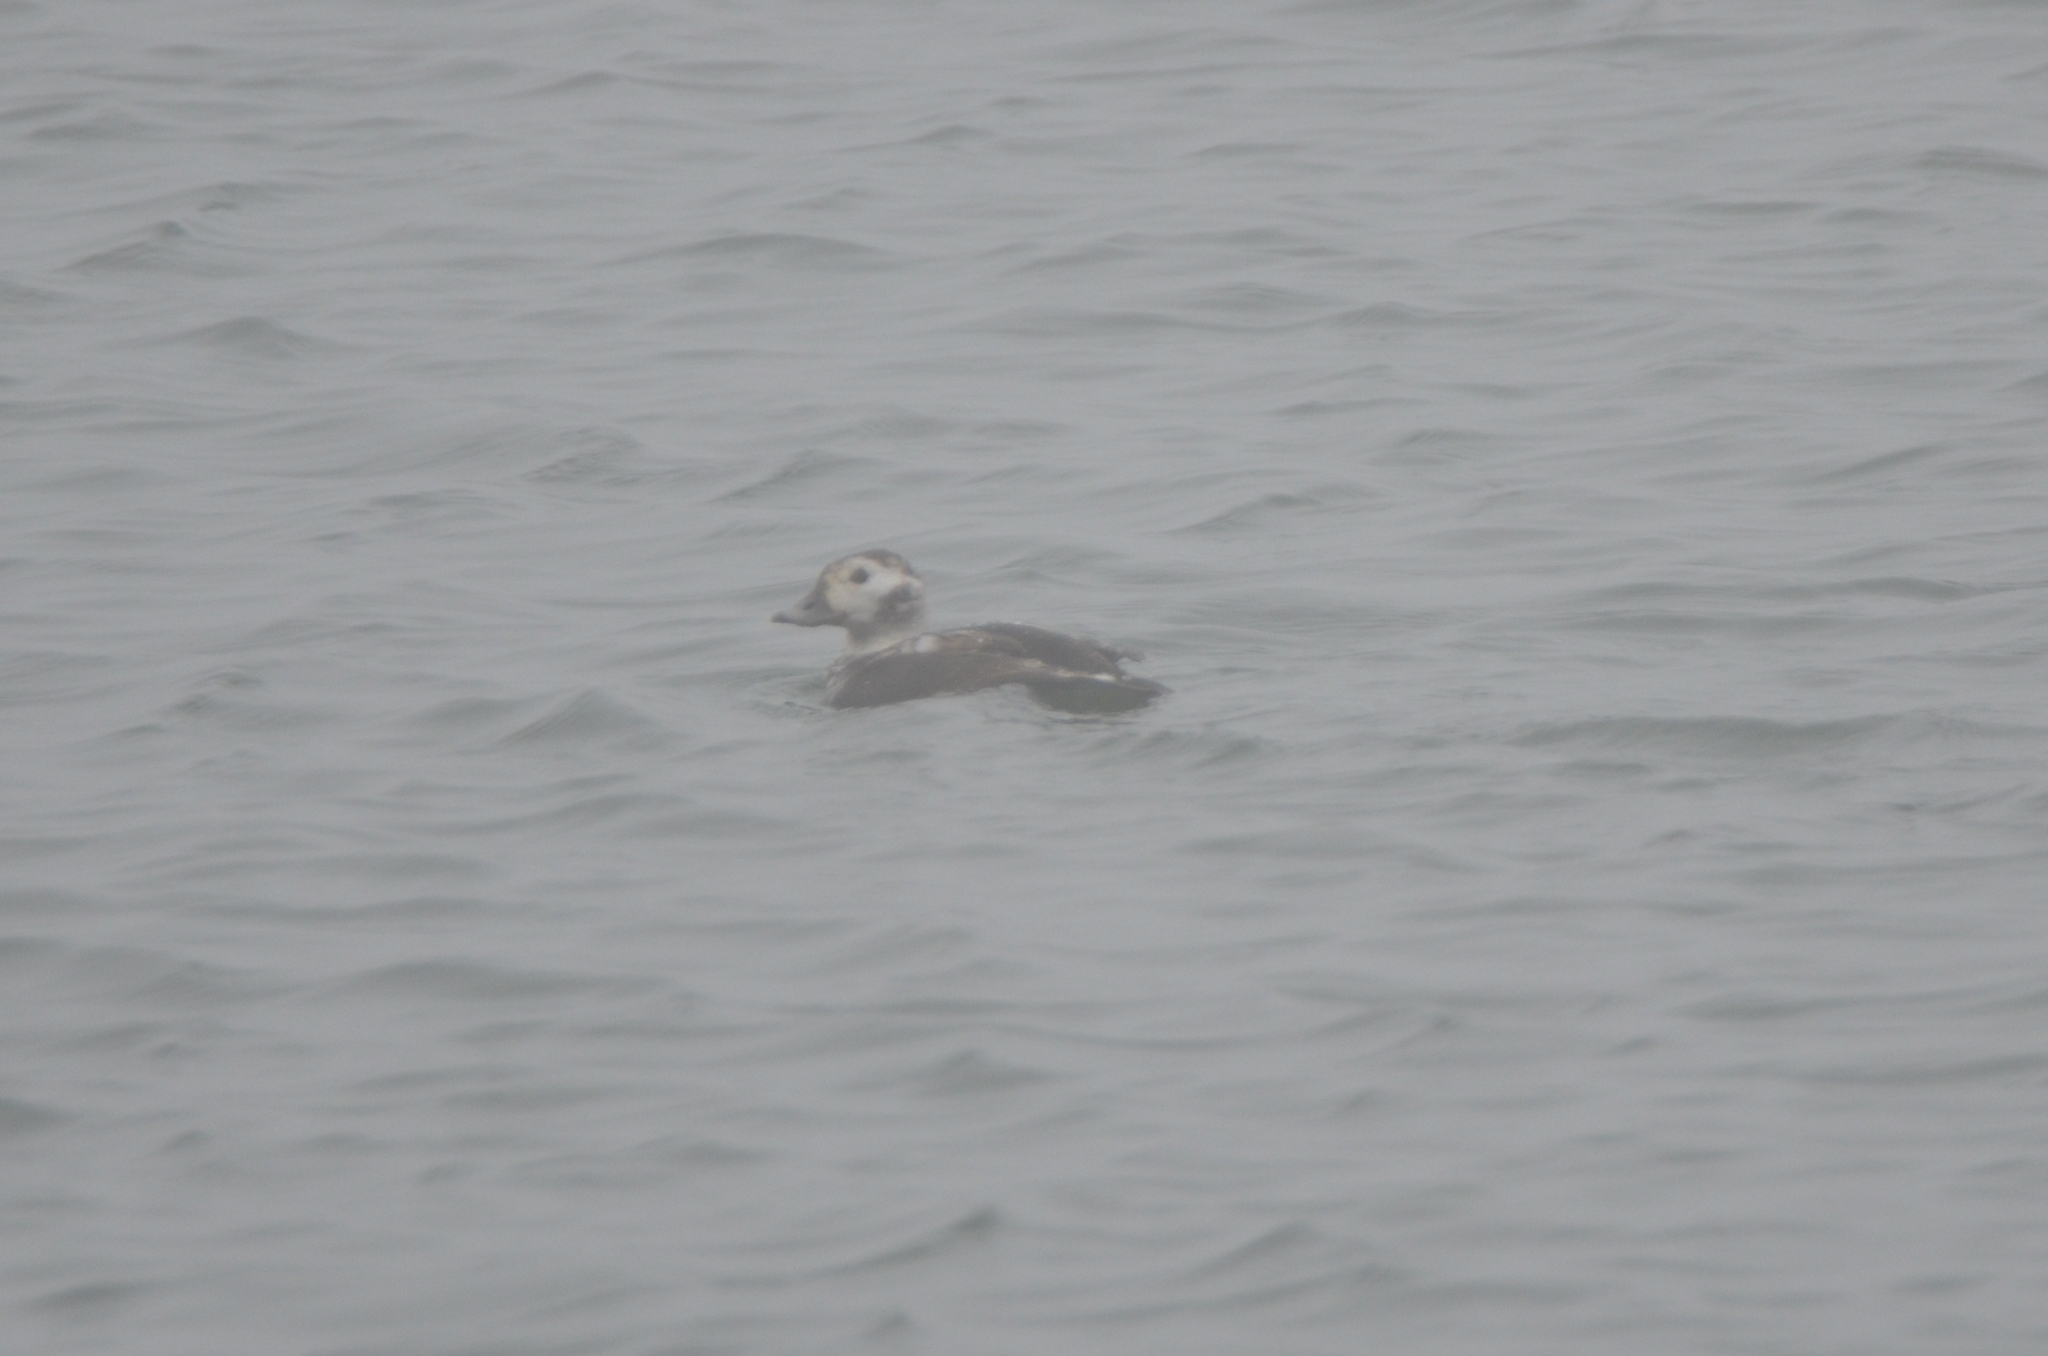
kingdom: Animalia
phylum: Chordata
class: Aves
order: Anseriformes
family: Anatidae
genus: Clangula
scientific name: Clangula hyemalis
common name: Long-tailed duck
